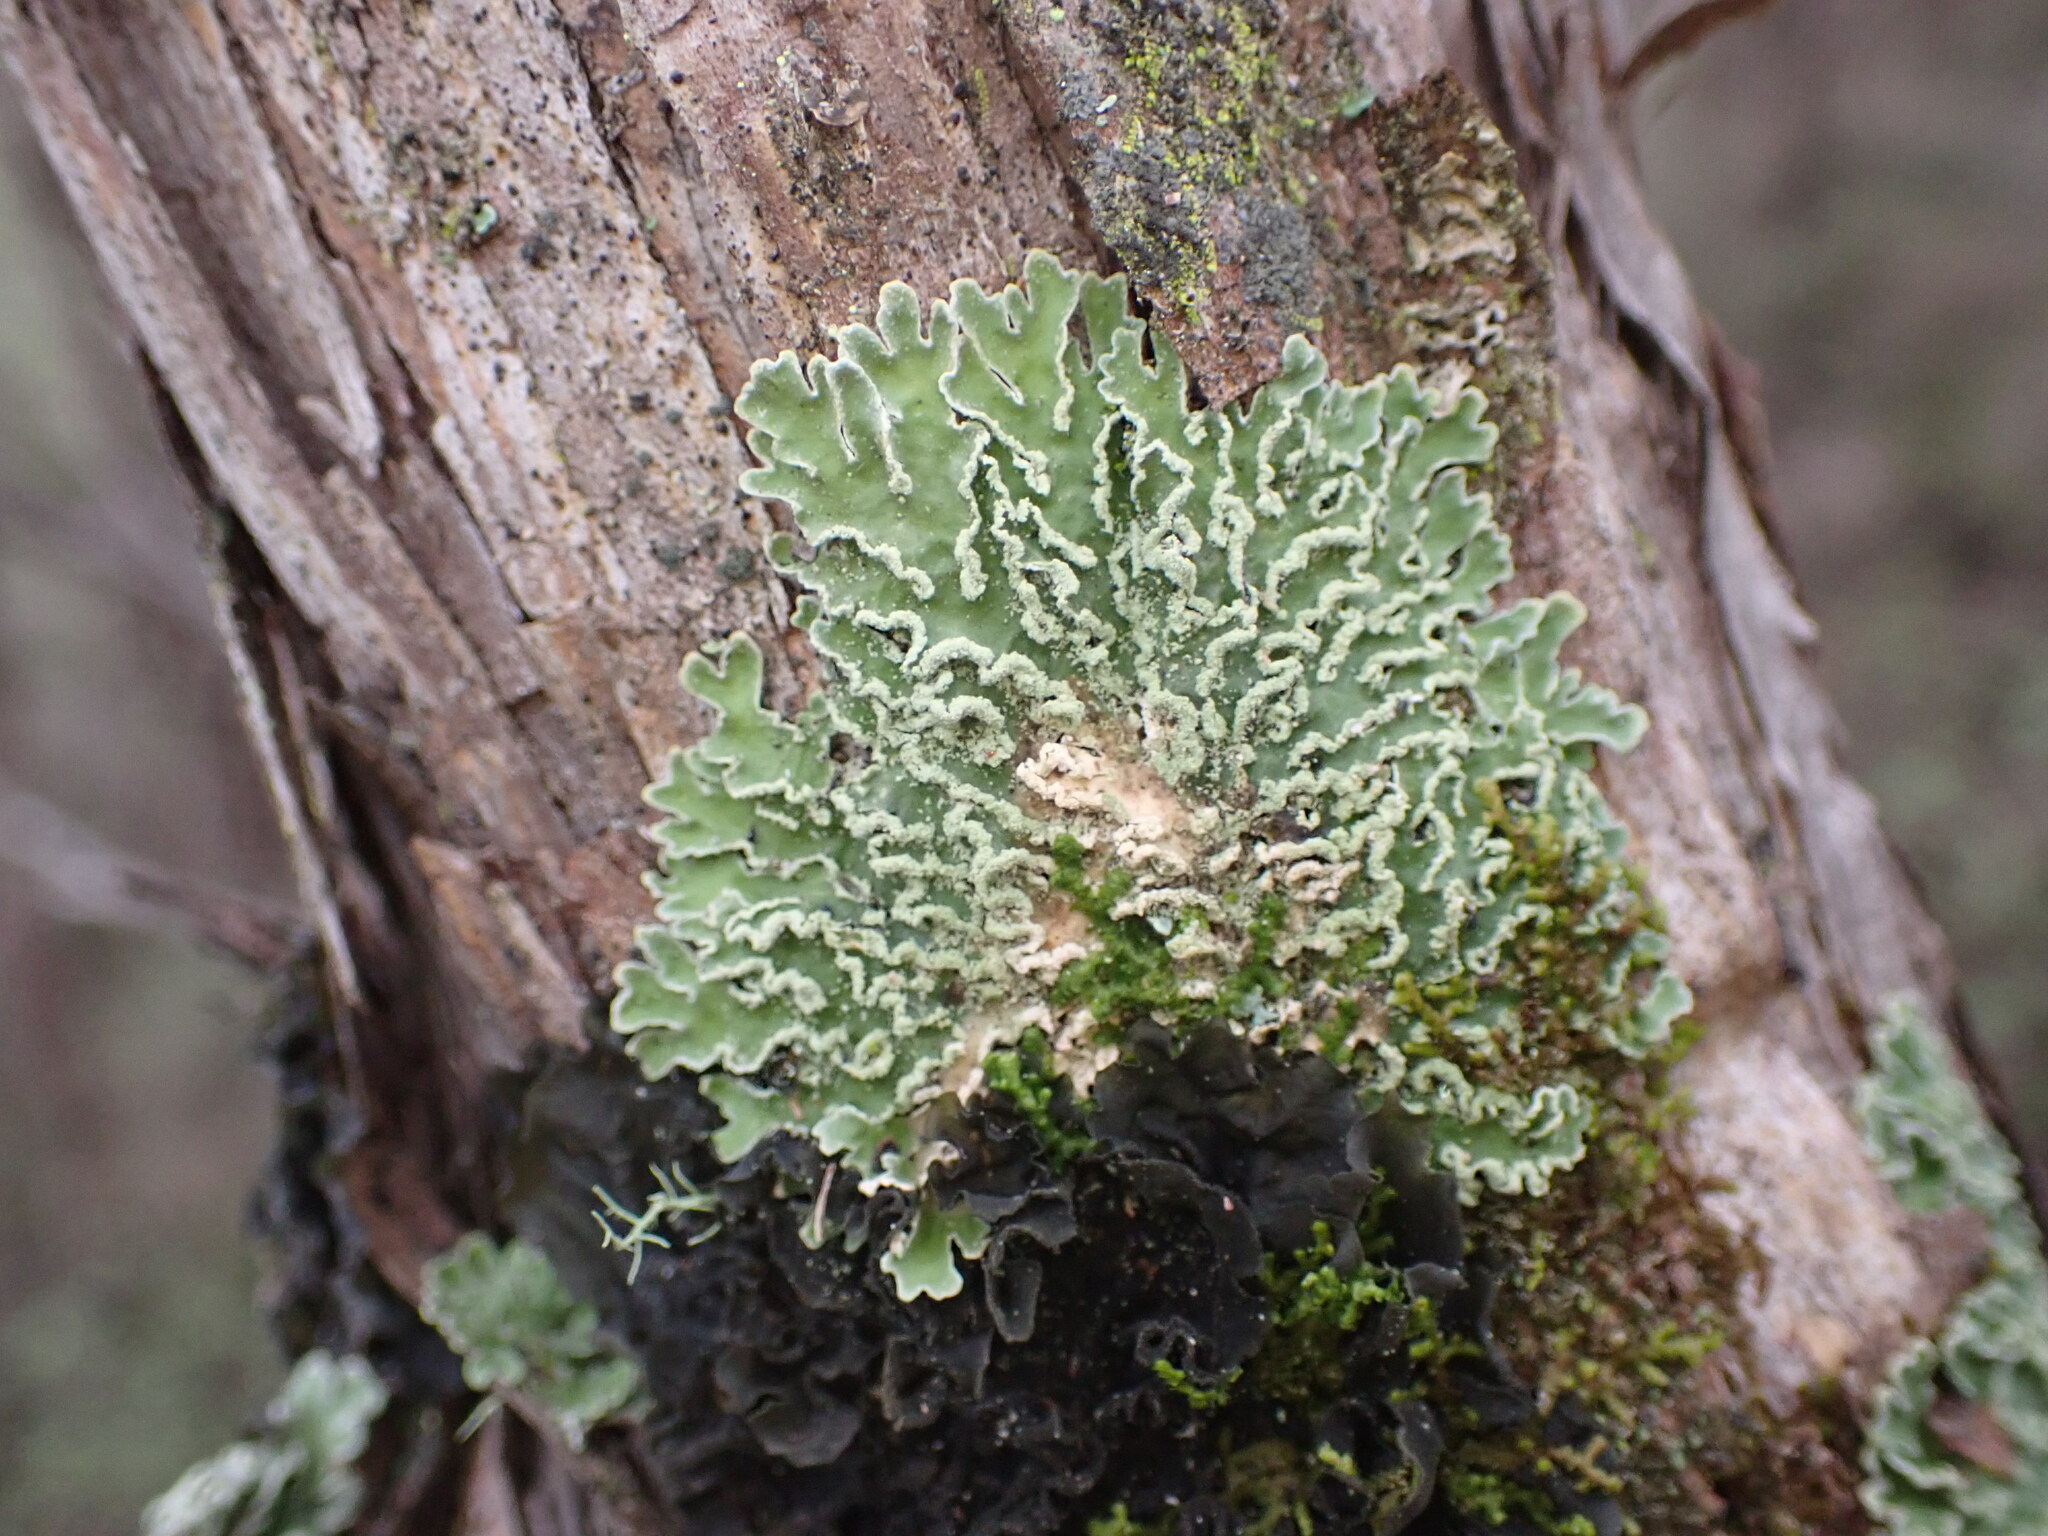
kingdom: Fungi
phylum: Ascomycota
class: Lecanoromycetes
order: Peltigerales
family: Pannariaceae
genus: Pannaria
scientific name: Pannaria leproloma
